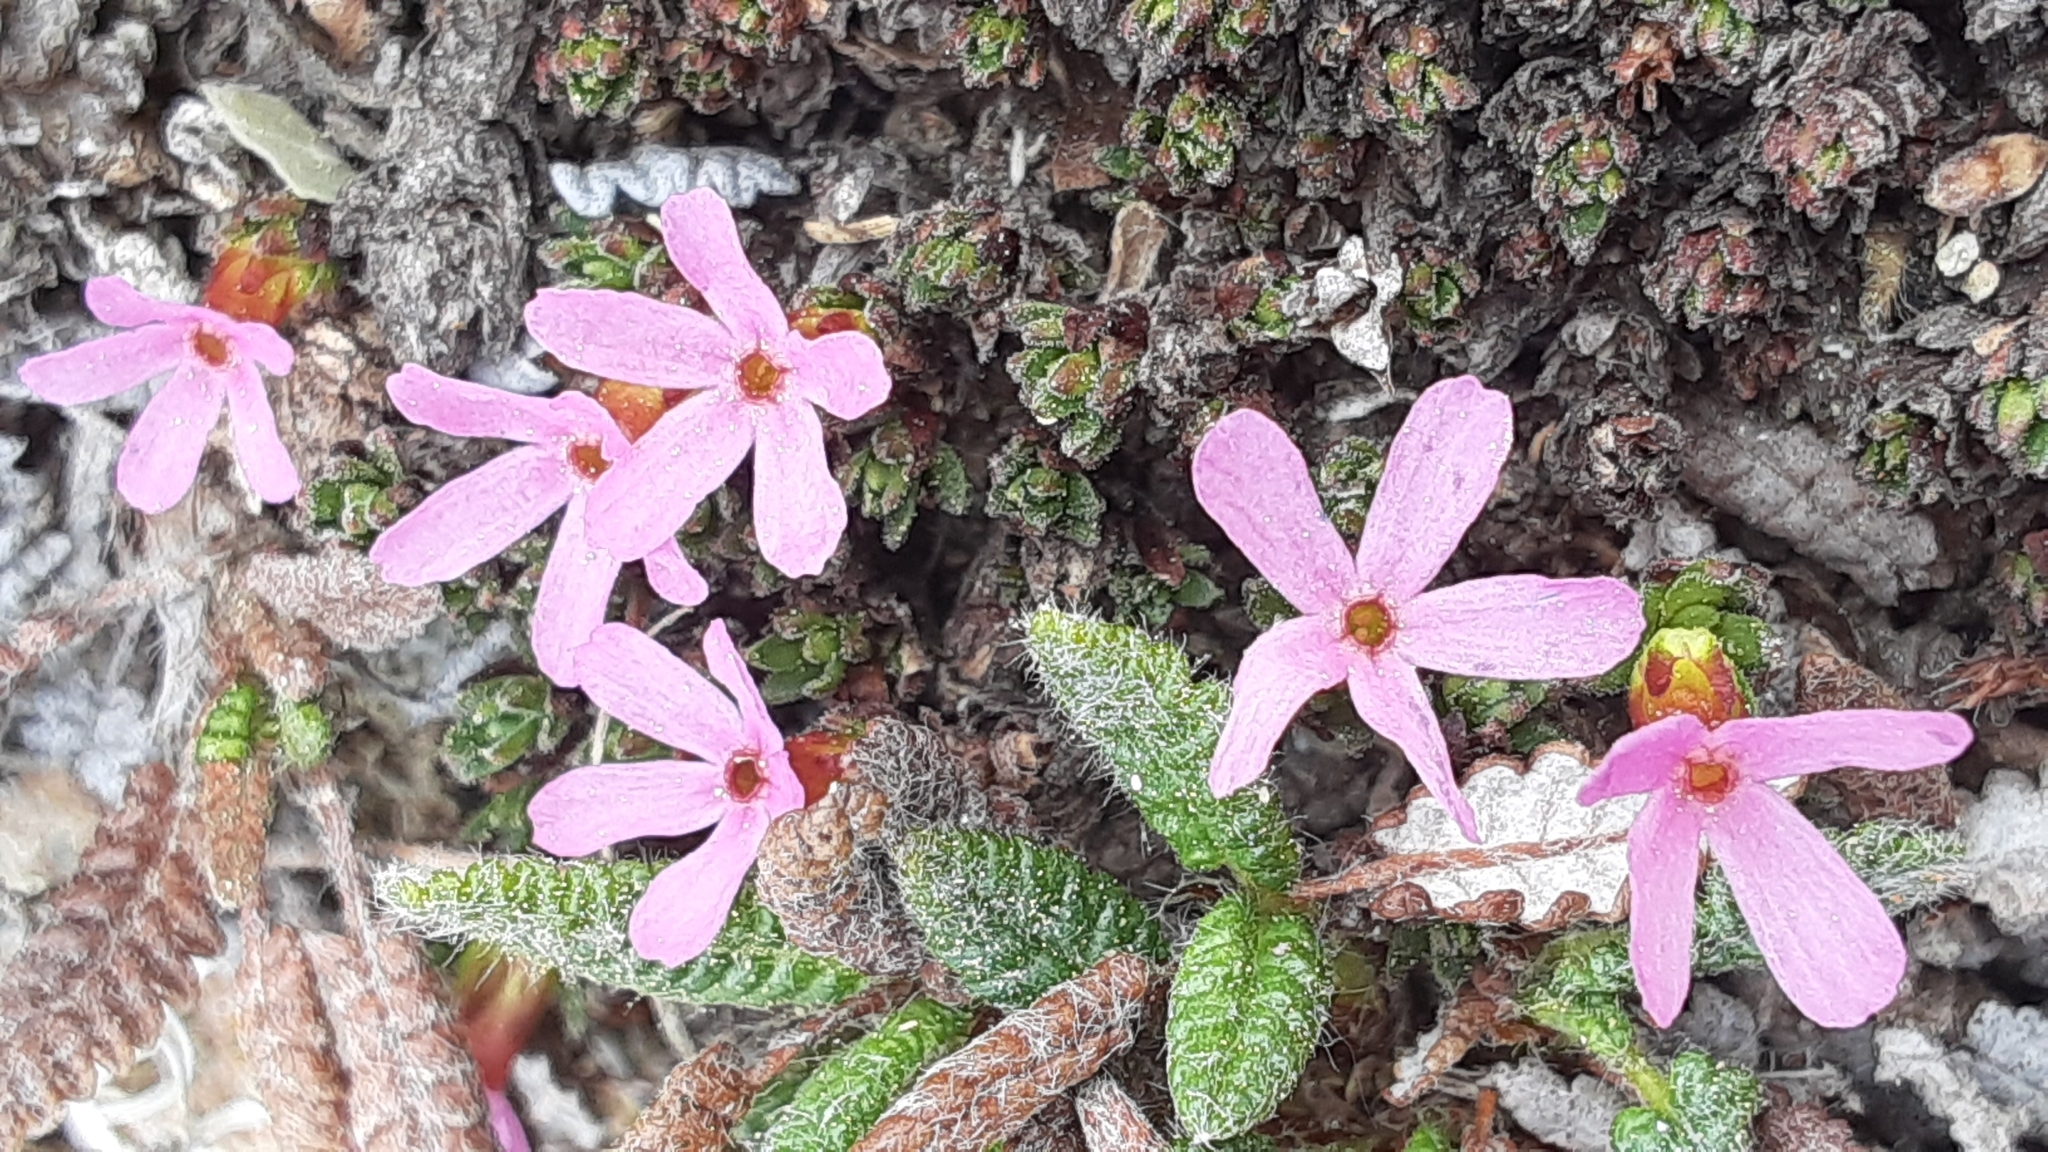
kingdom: Plantae
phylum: Tracheophyta
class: Magnoliopsida
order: Ericales
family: Primulaceae
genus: Androsace
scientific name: Androsace constancei
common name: Gorman's dwarf-primrose
